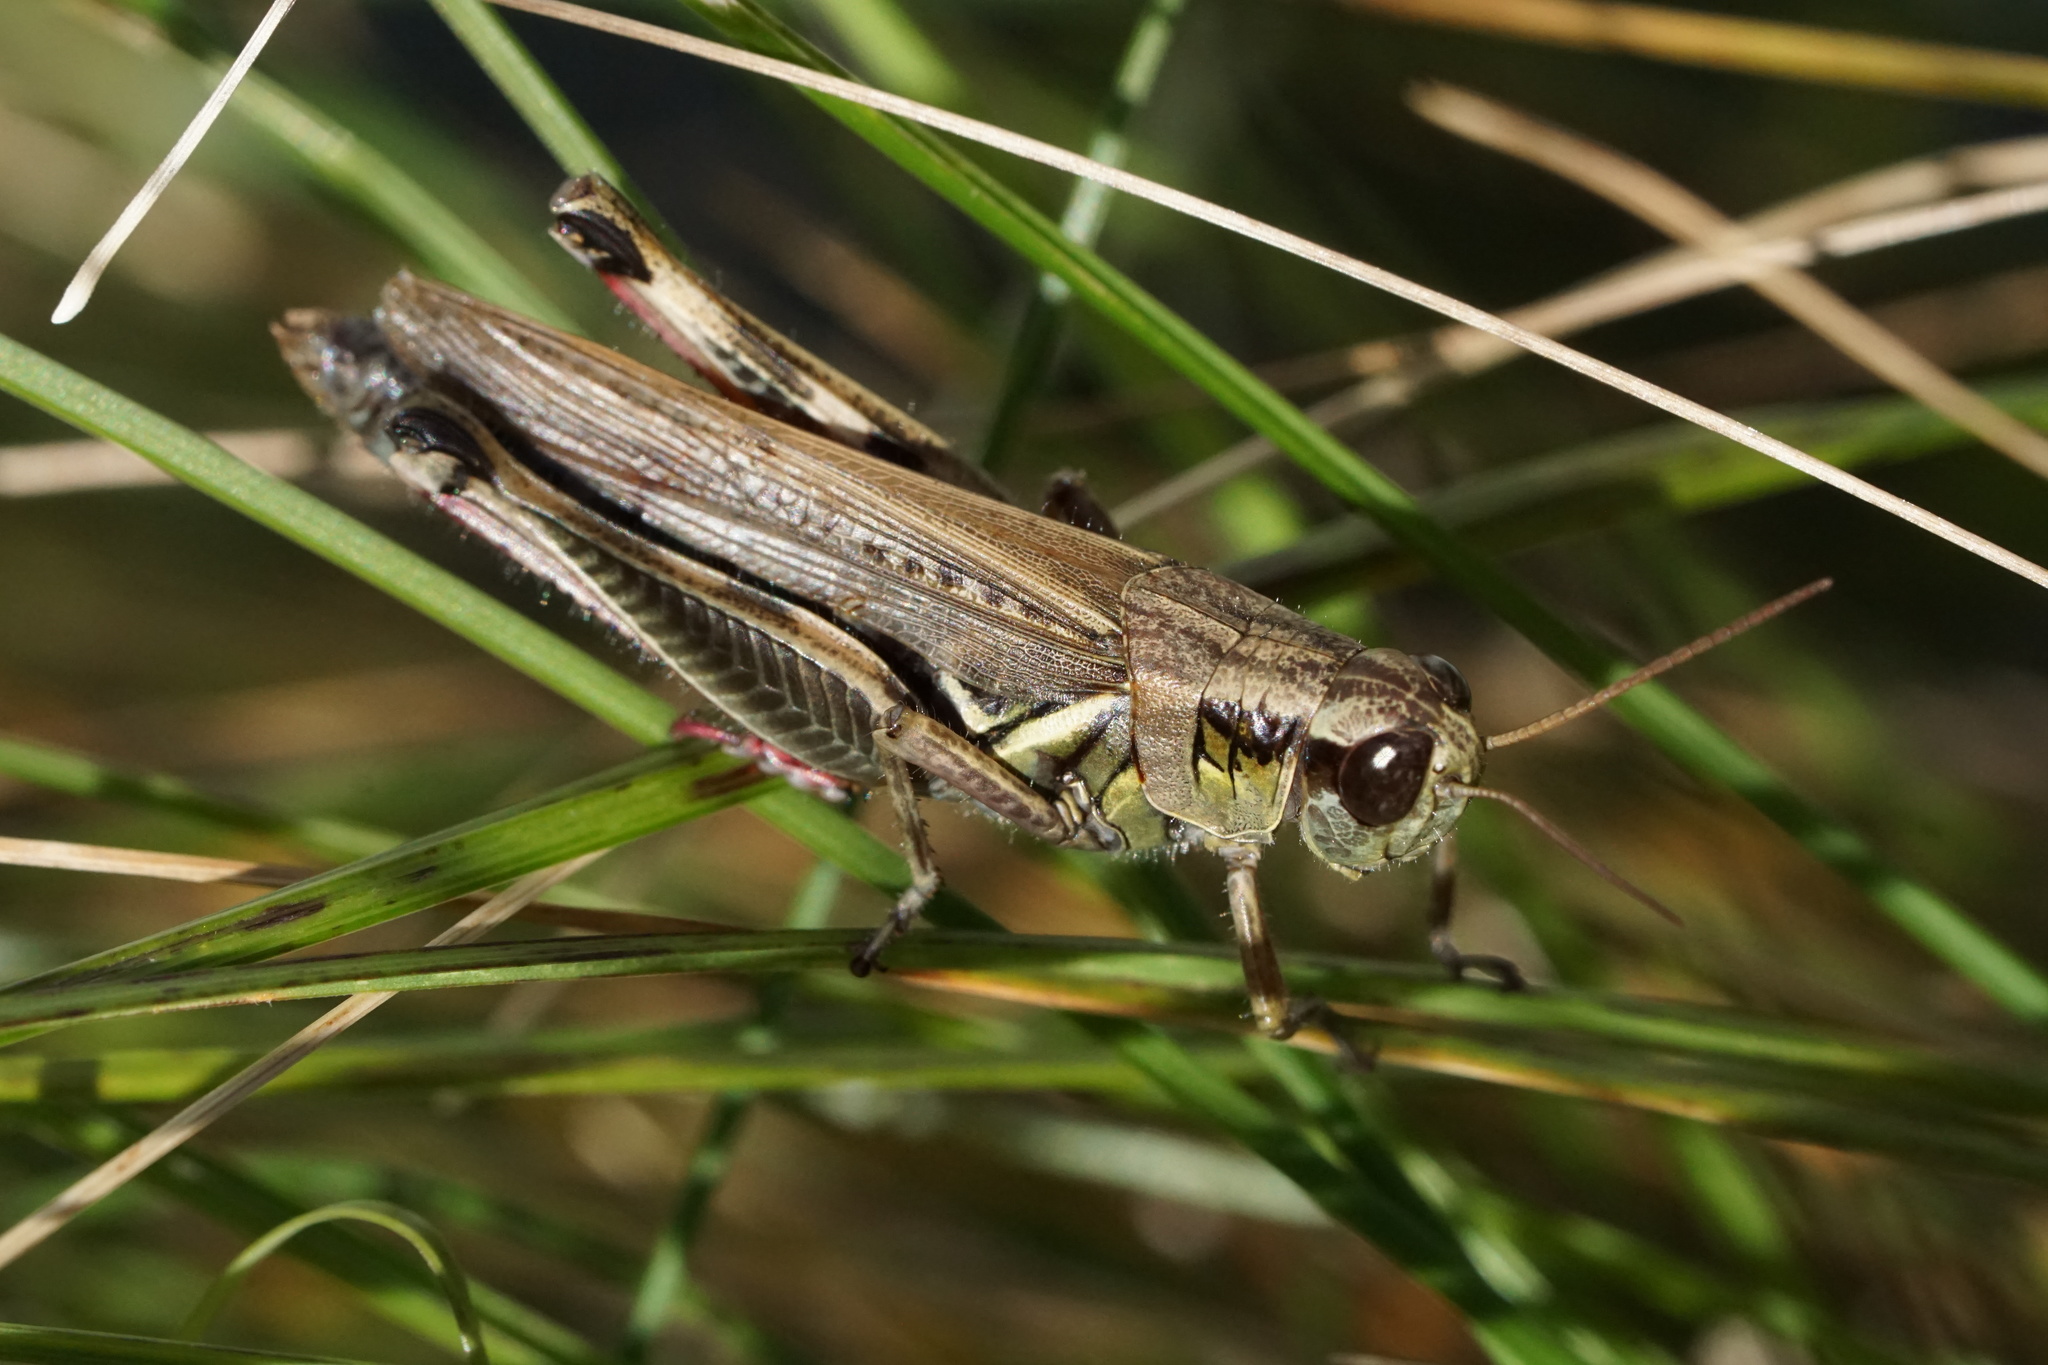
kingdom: Animalia
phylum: Arthropoda
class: Insecta
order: Orthoptera
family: Acrididae
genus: Melanoplus
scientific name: Melanoplus femurrubrum
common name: Red-legged grasshopper
